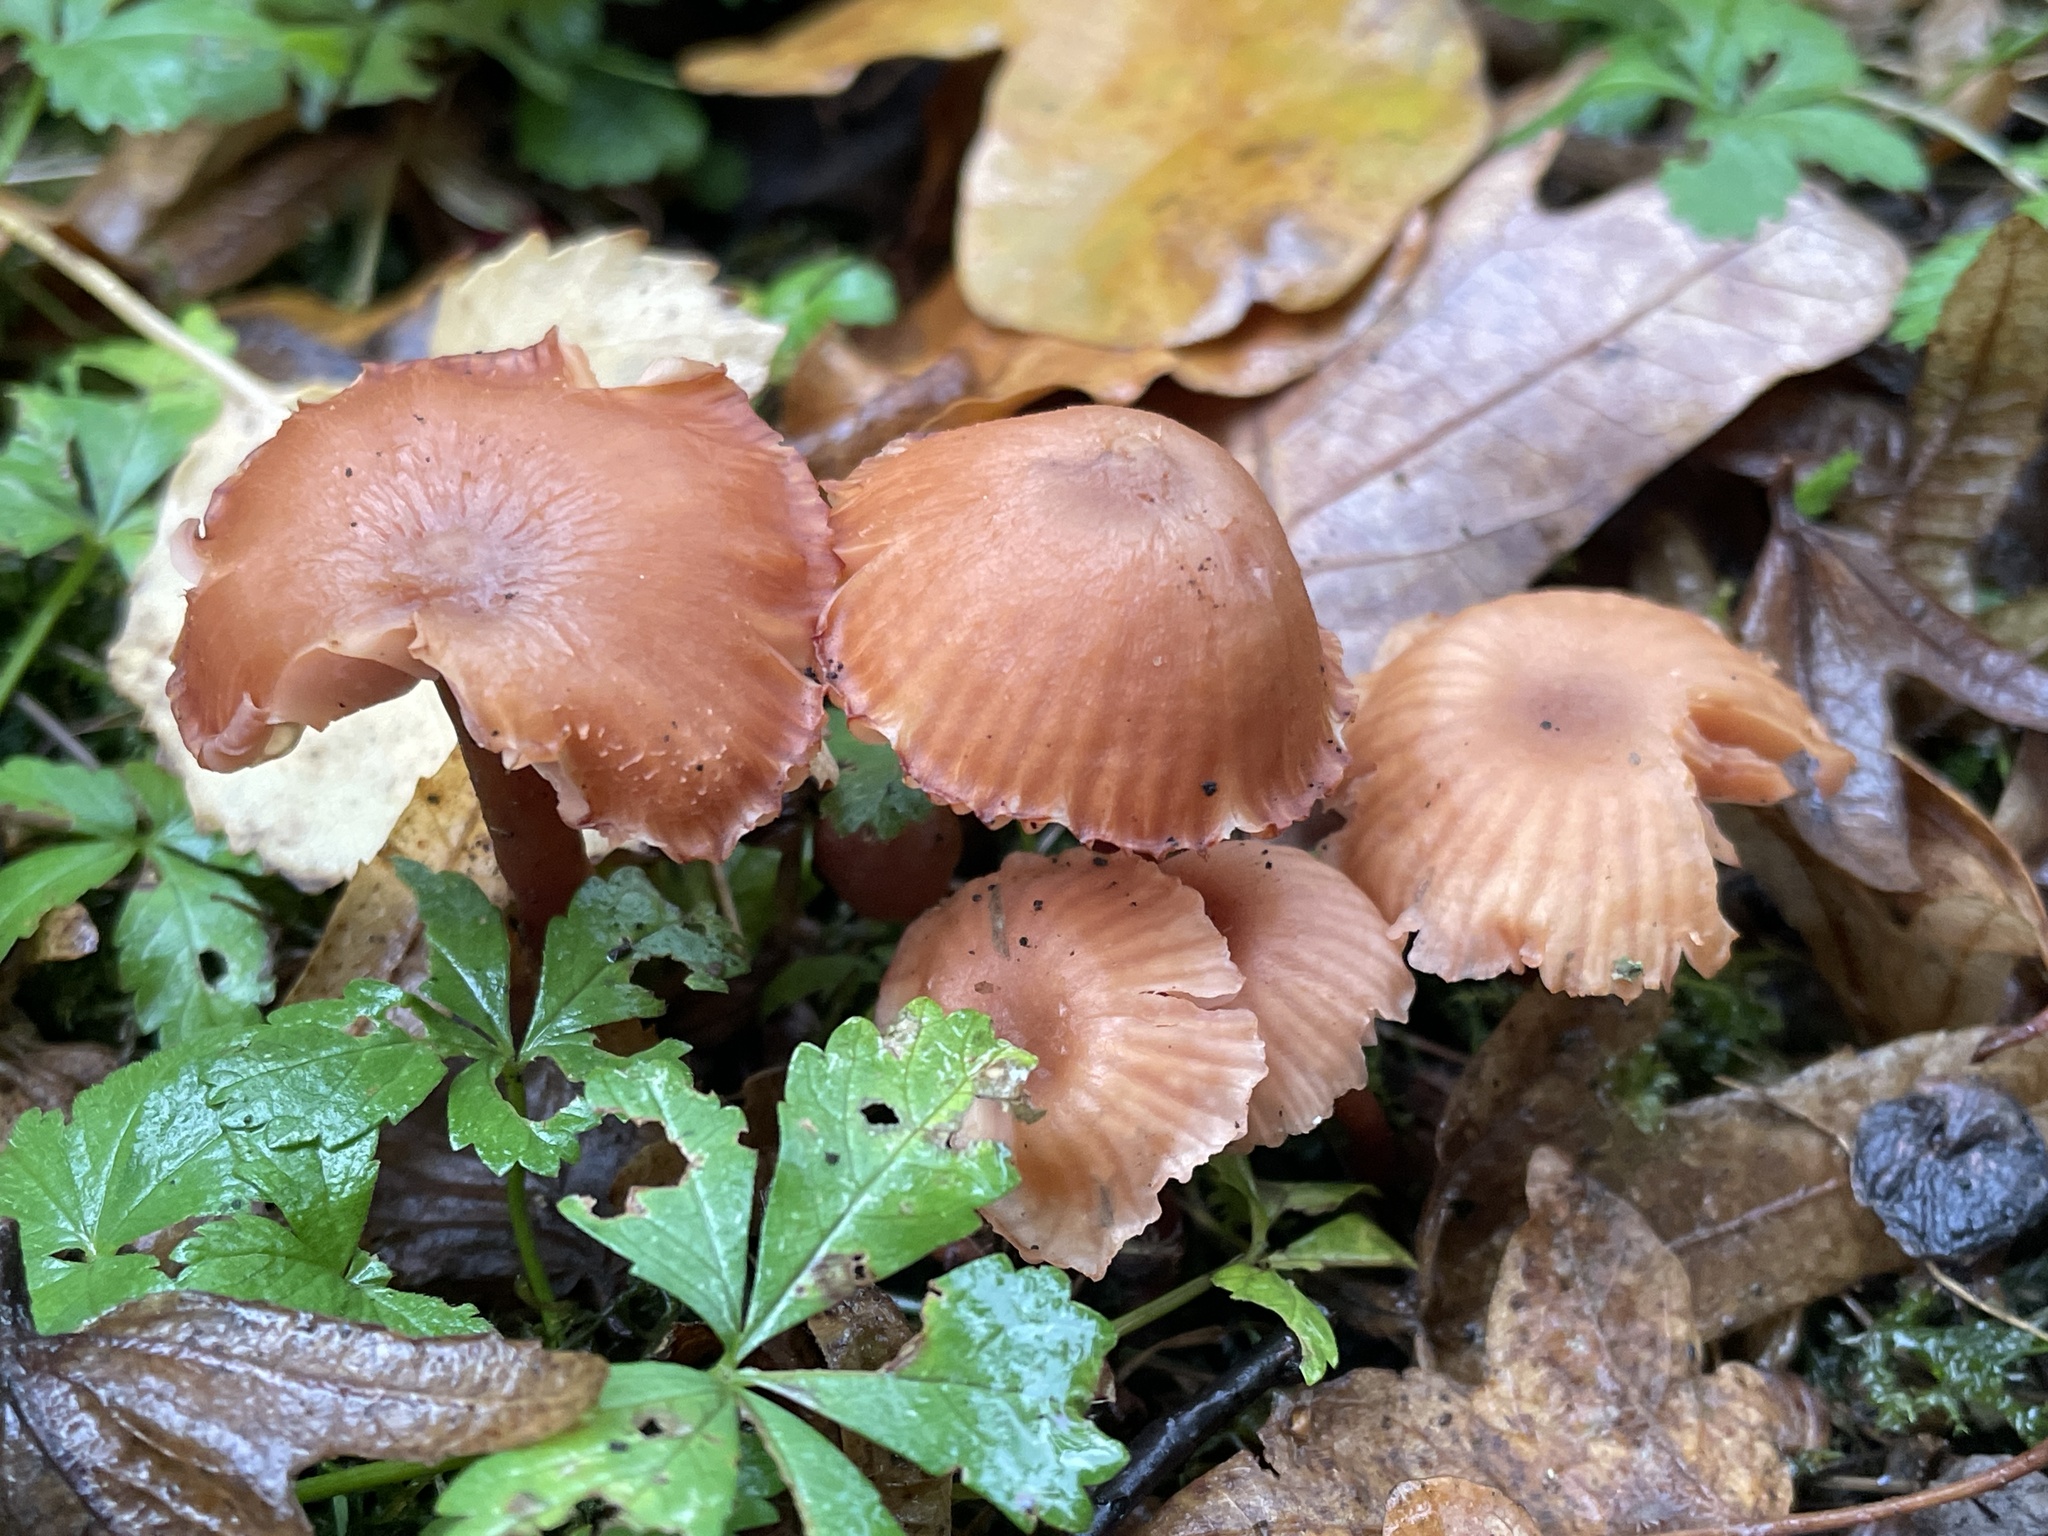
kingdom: Fungi
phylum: Basidiomycota
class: Agaricomycetes
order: Agaricales
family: Hydnangiaceae
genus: Laccaria
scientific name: Laccaria laccata
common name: Deceiver
